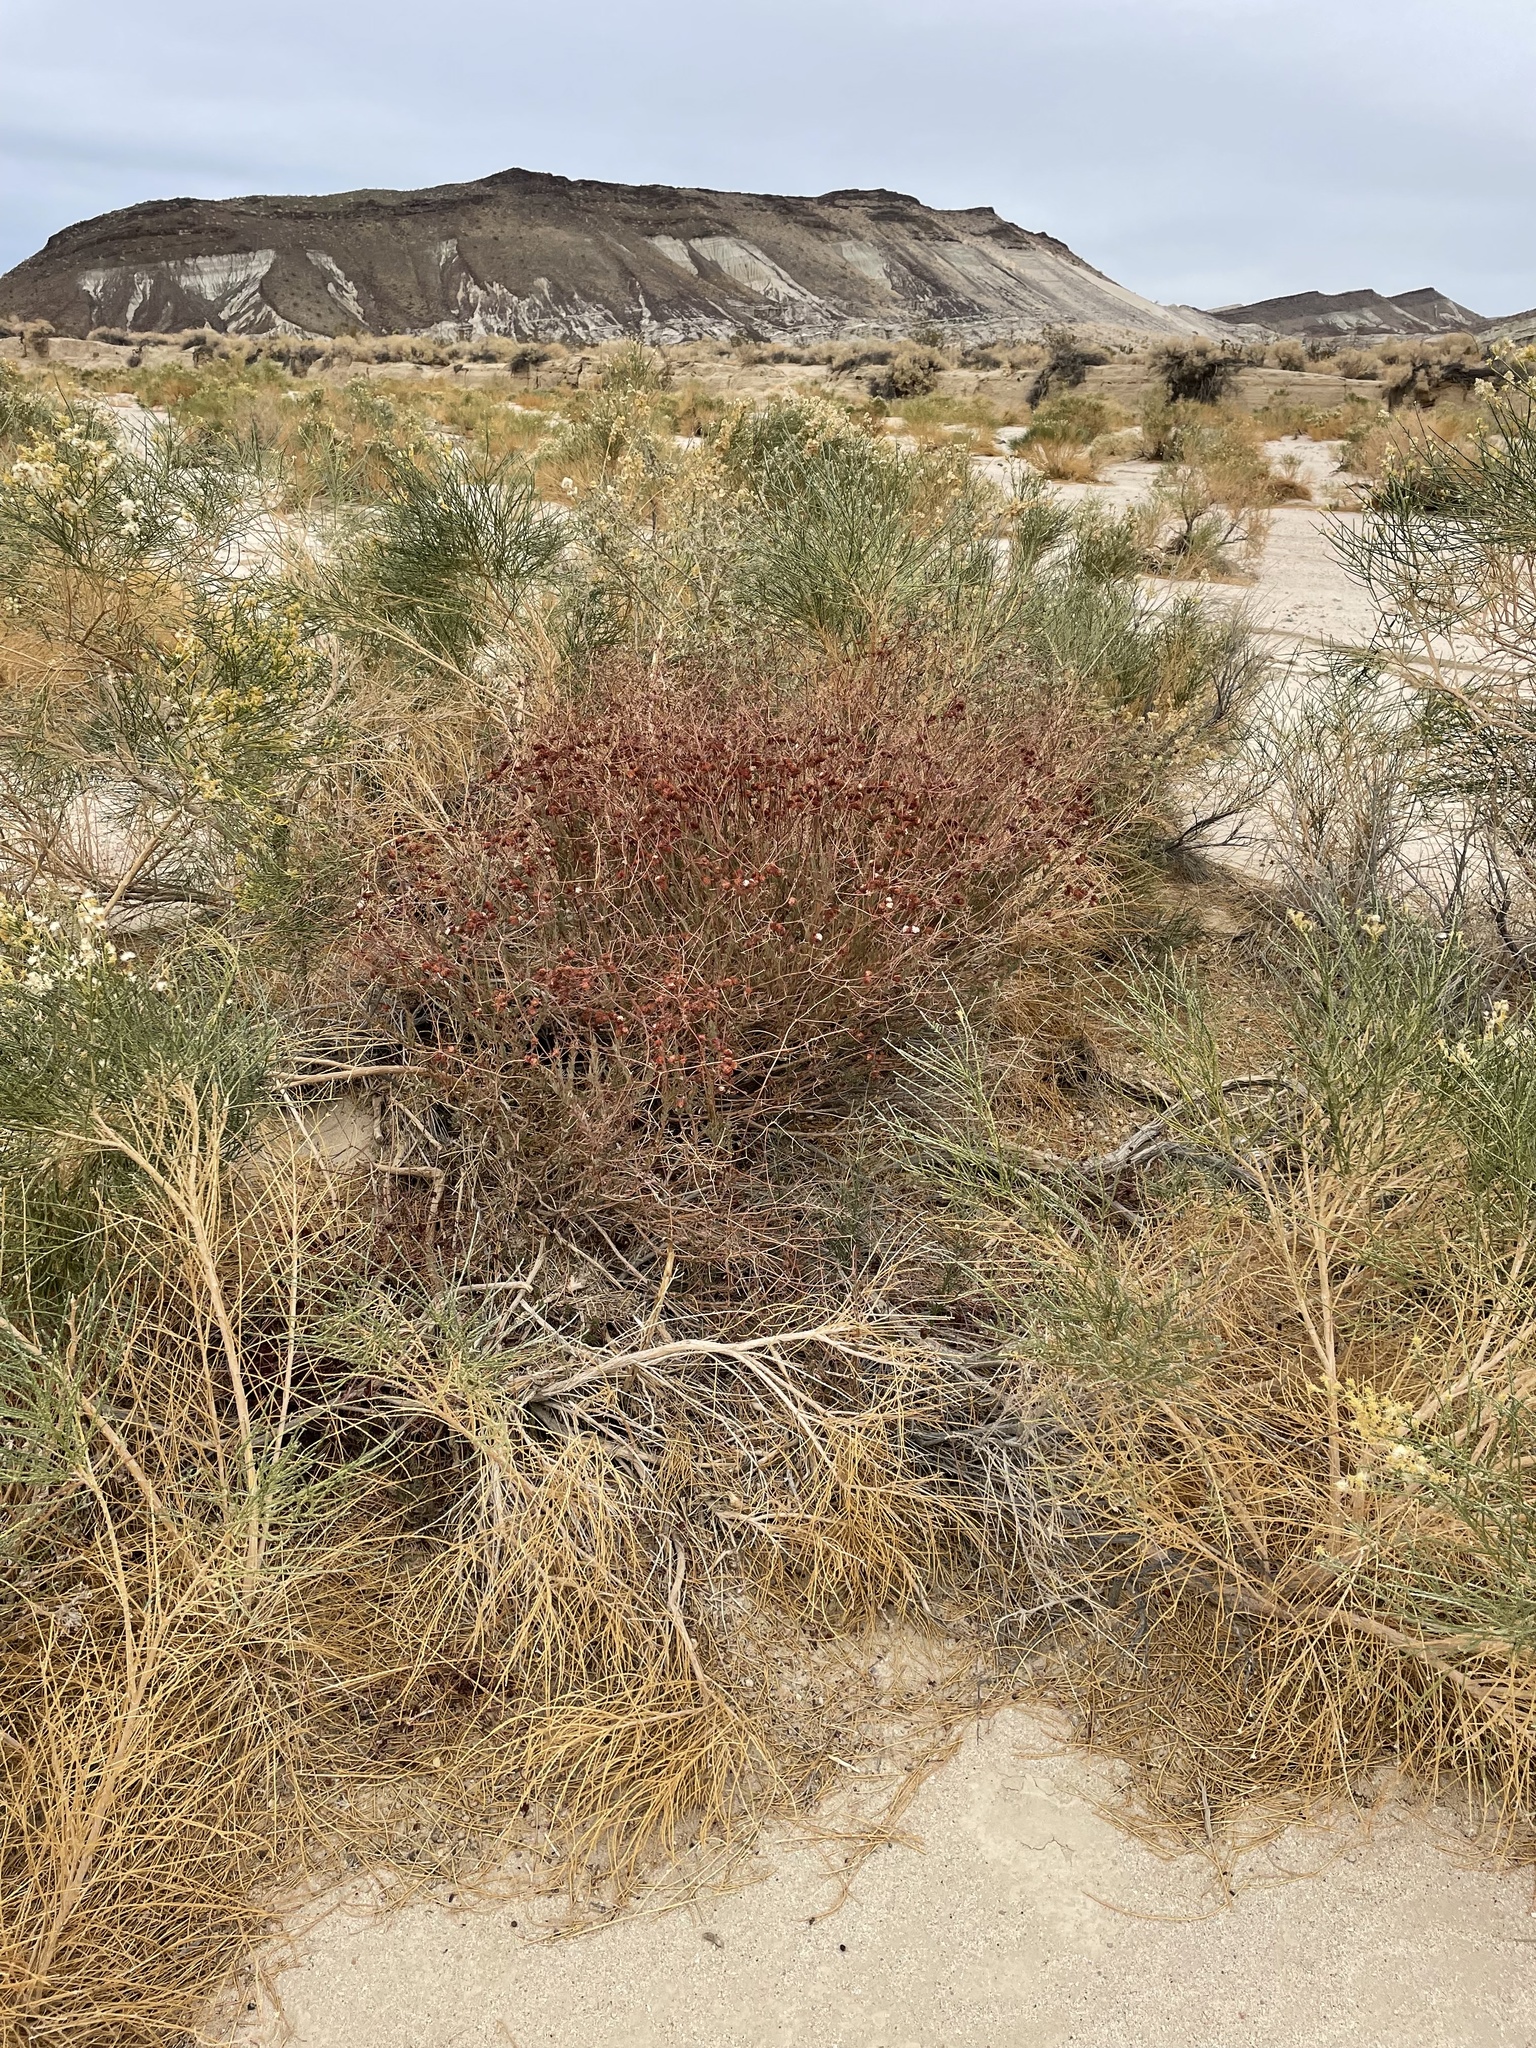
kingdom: Plantae
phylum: Tracheophyta
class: Magnoliopsida
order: Caryophyllales
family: Polygonaceae
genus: Eriogonum
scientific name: Eriogonum fasciculatum
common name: California wild buckwheat
